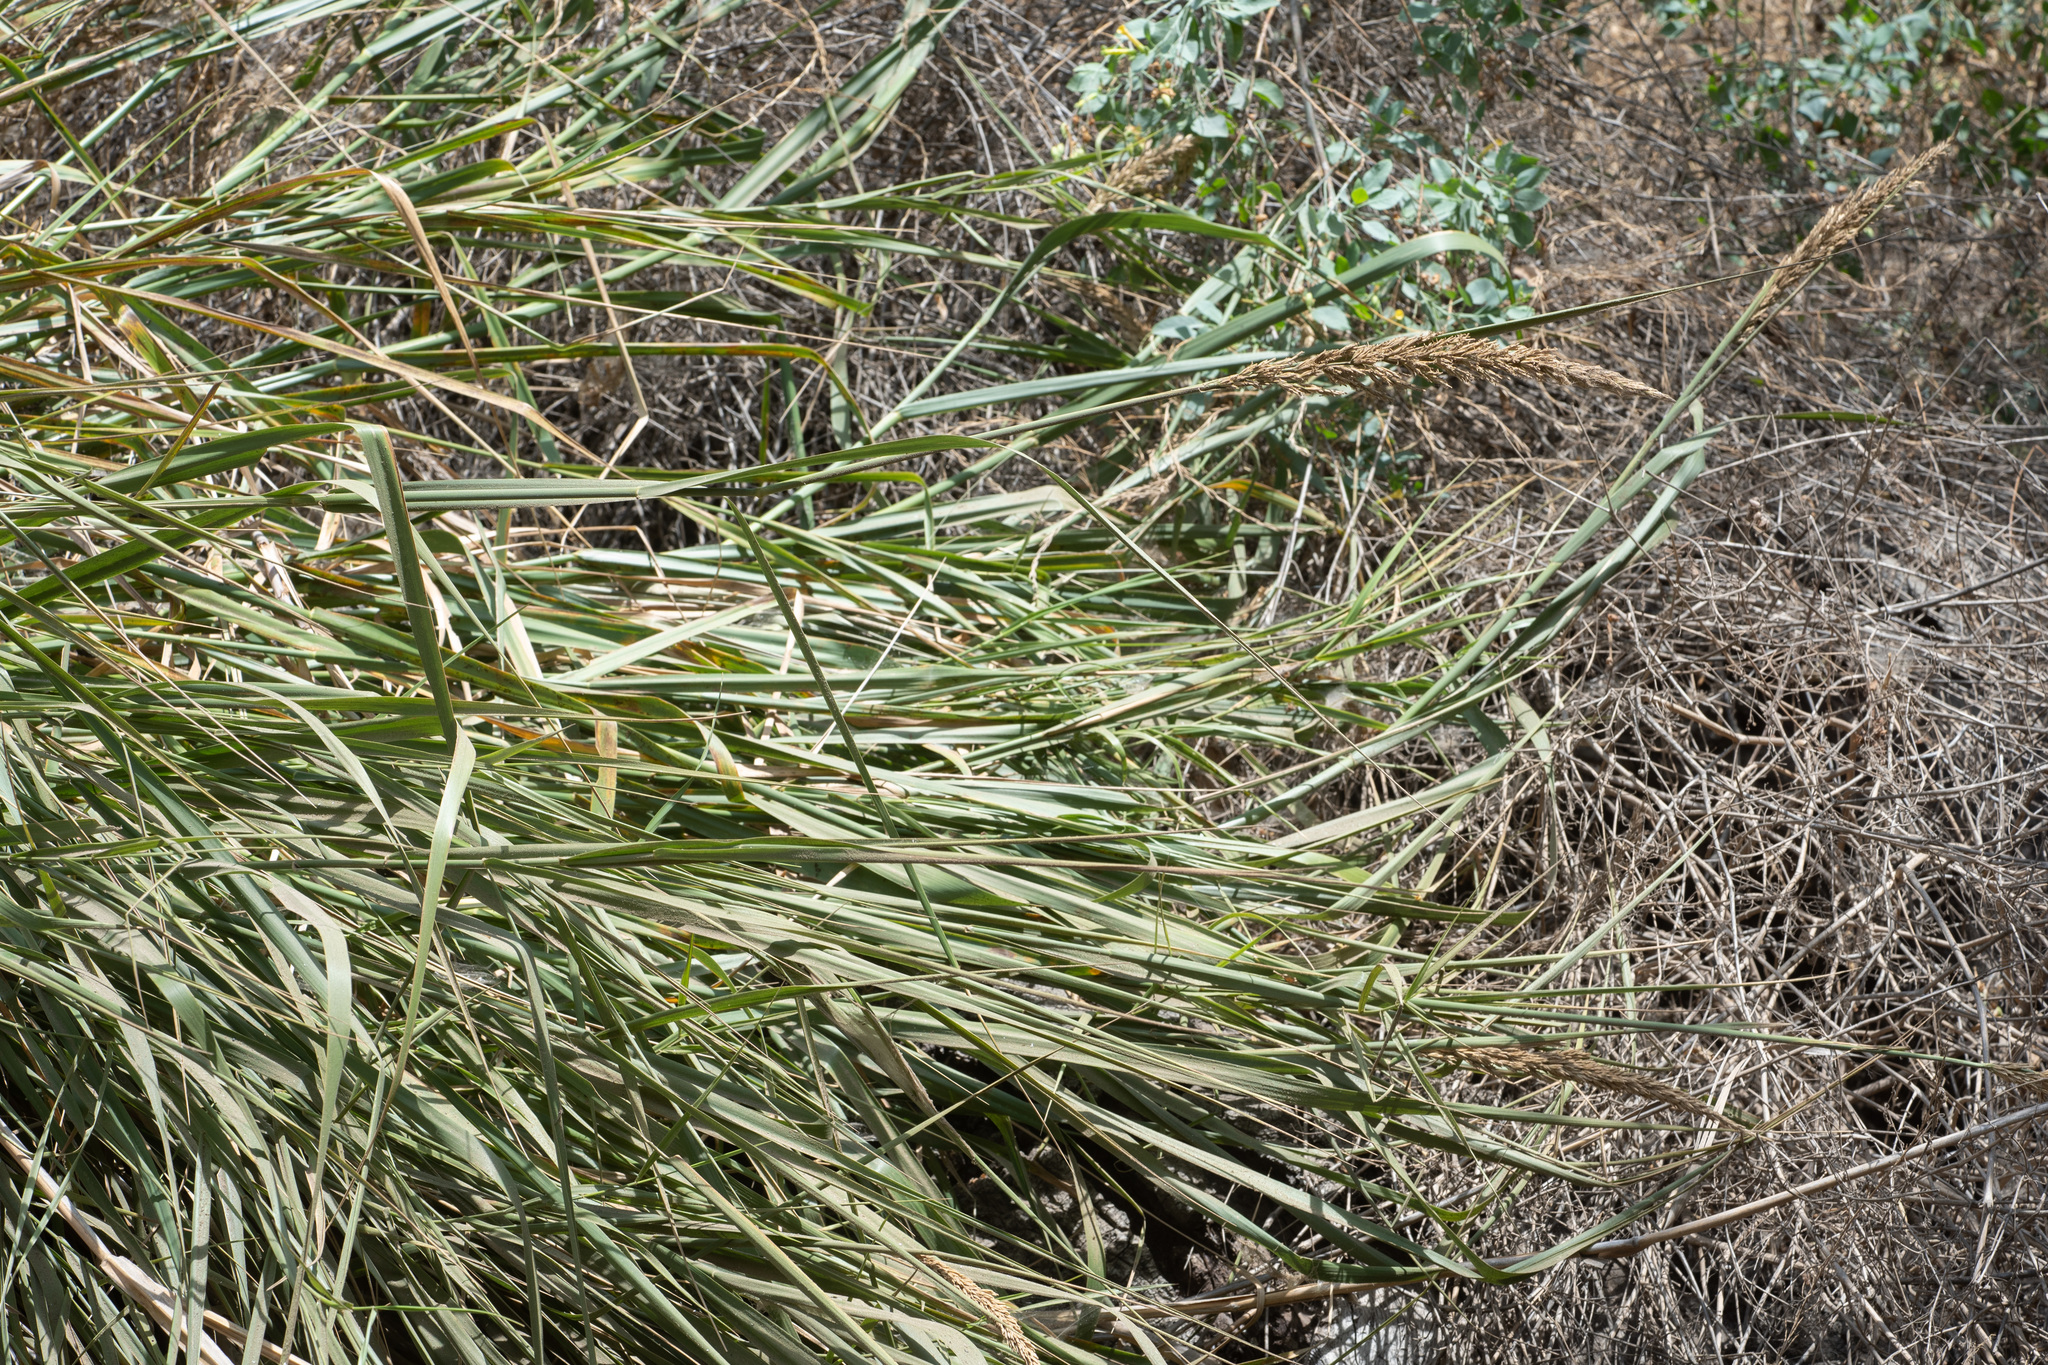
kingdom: Plantae
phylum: Tracheophyta
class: Liliopsida
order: Poales
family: Poaceae
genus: Leymus
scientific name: Leymus condensatus
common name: Giant wild rye
